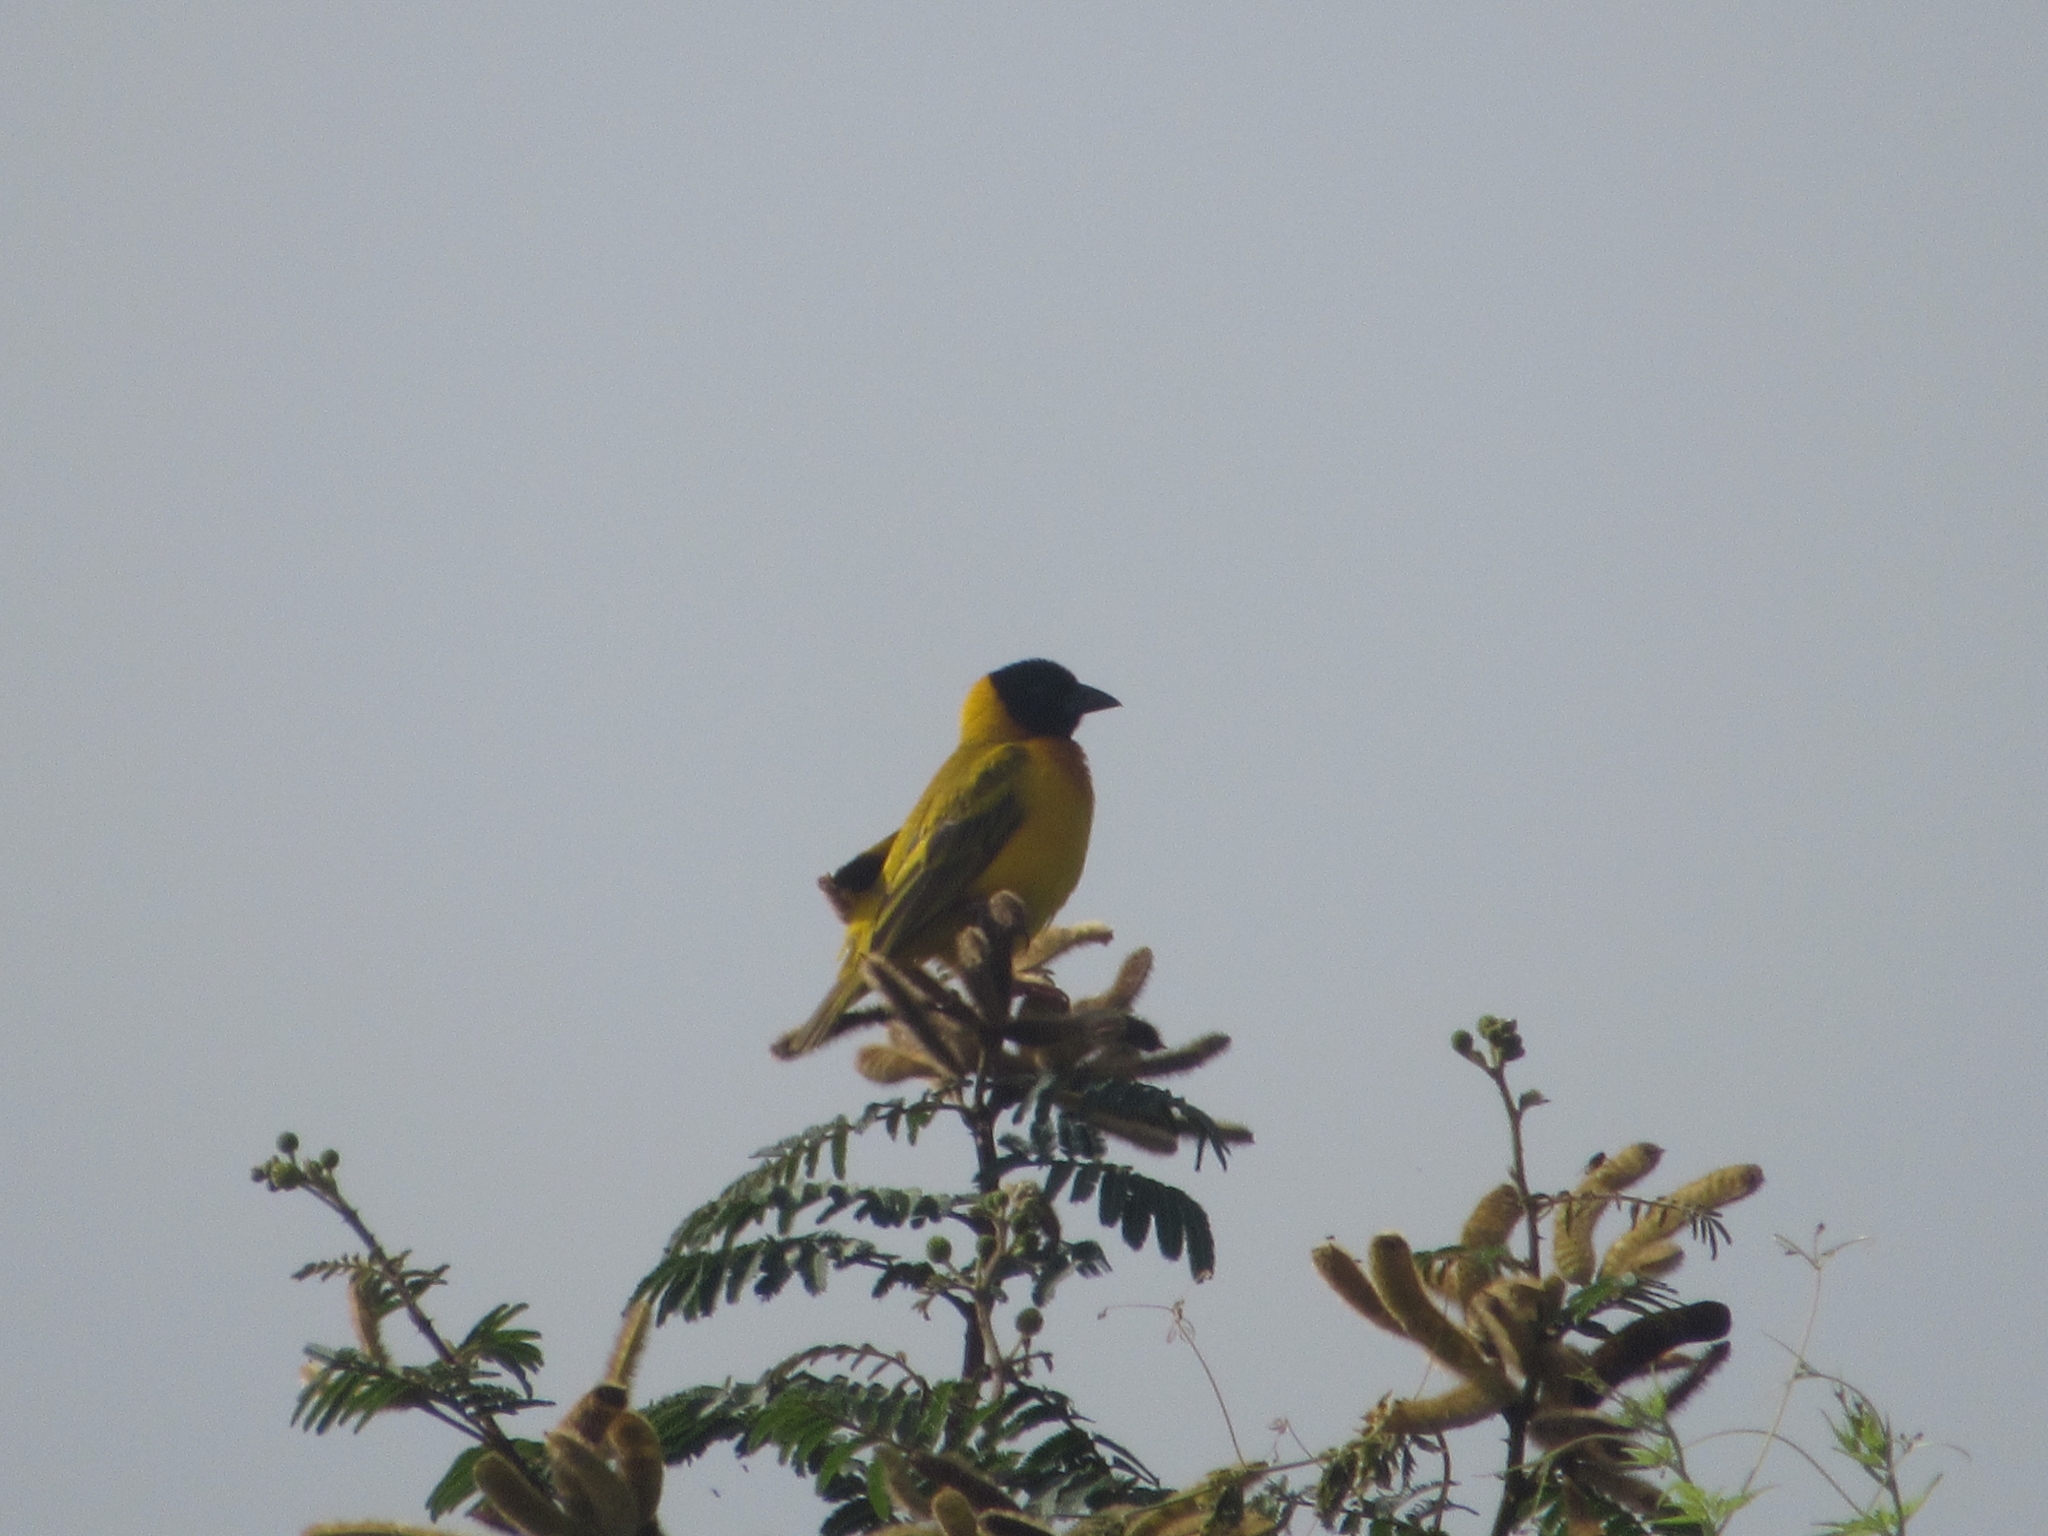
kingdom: Animalia
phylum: Chordata
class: Aves
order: Passeriformes
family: Ploceidae
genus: Ploceus
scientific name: Ploceus melanocephalus
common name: Black-headed weaver
